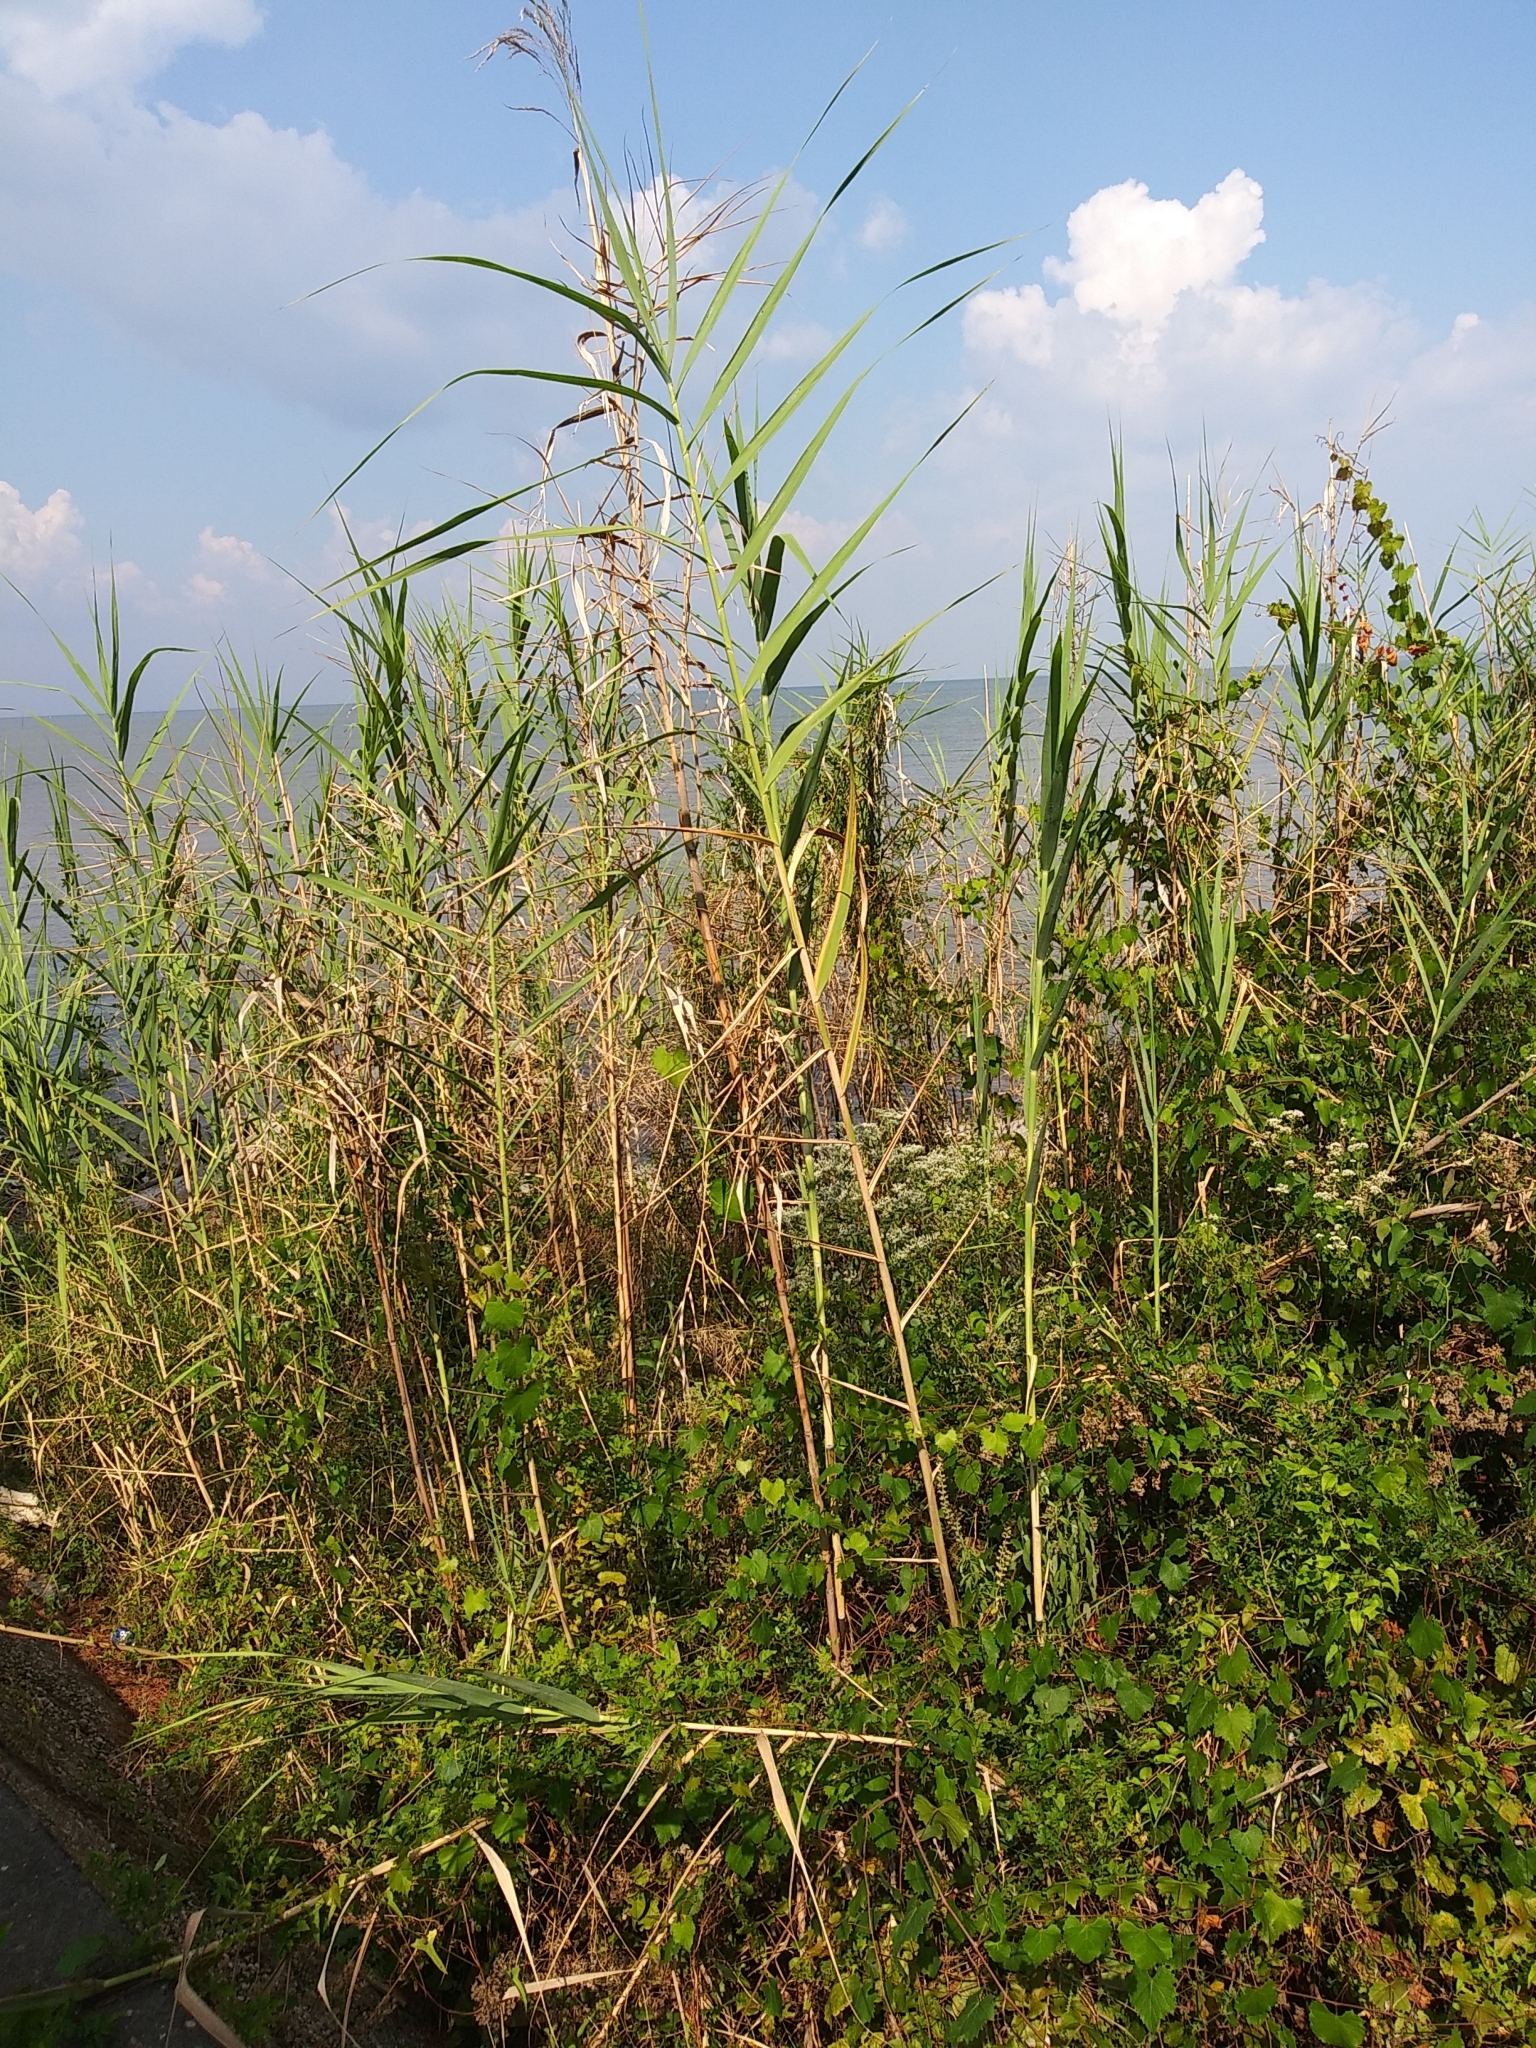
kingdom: Plantae
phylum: Tracheophyta
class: Liliopsida
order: Poales
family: Poaceae
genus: Phragmites
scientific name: Phragmites australis
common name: Common reed
